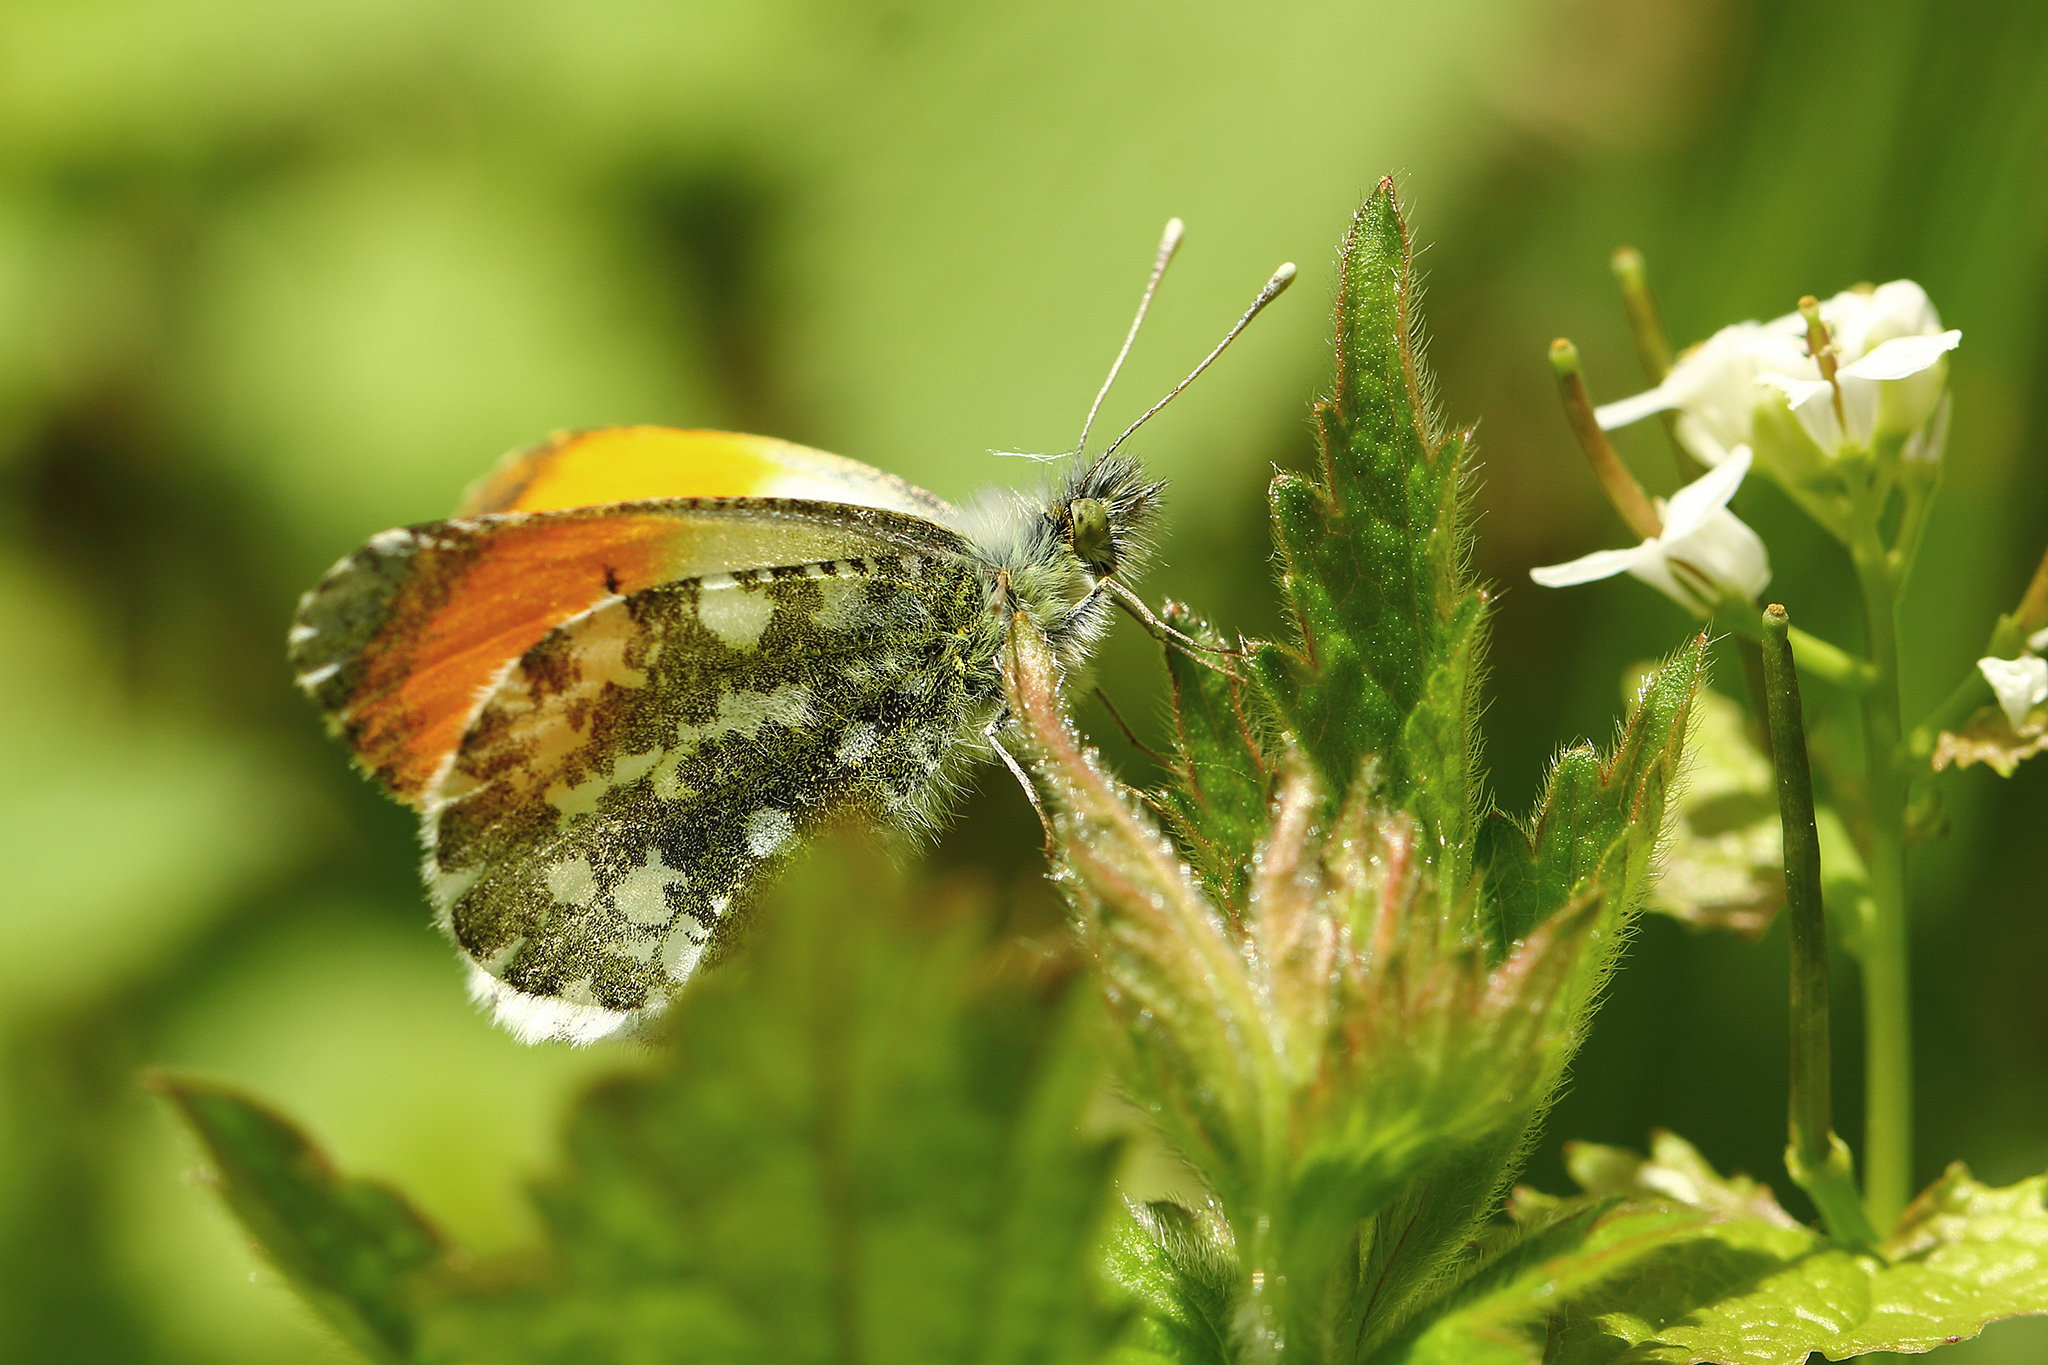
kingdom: Animalia
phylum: Arthropoda
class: Insecta
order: Lepidoptera
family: Pieridae
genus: Anthocharis
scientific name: Anthocharis cardamines
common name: Orange-tip
